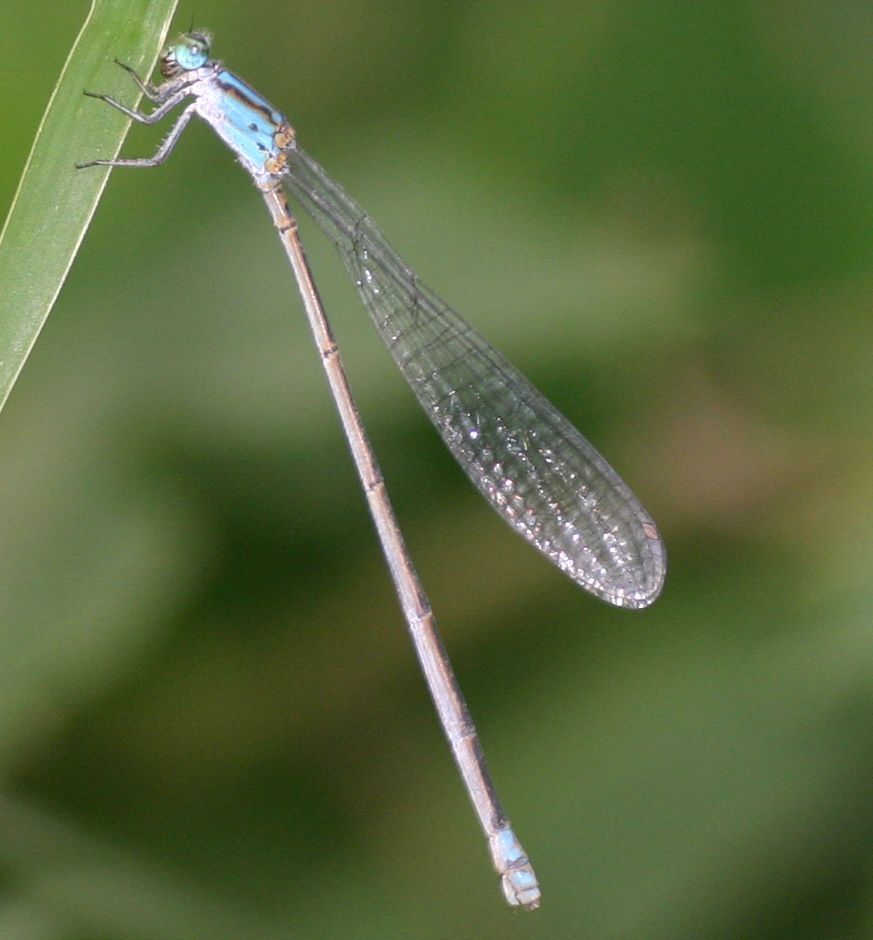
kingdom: Animalia
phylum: Arthropoda
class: Insecta
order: Odonata
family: Coenagrionidae
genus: Archibasis
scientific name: Archibasis oscillans
